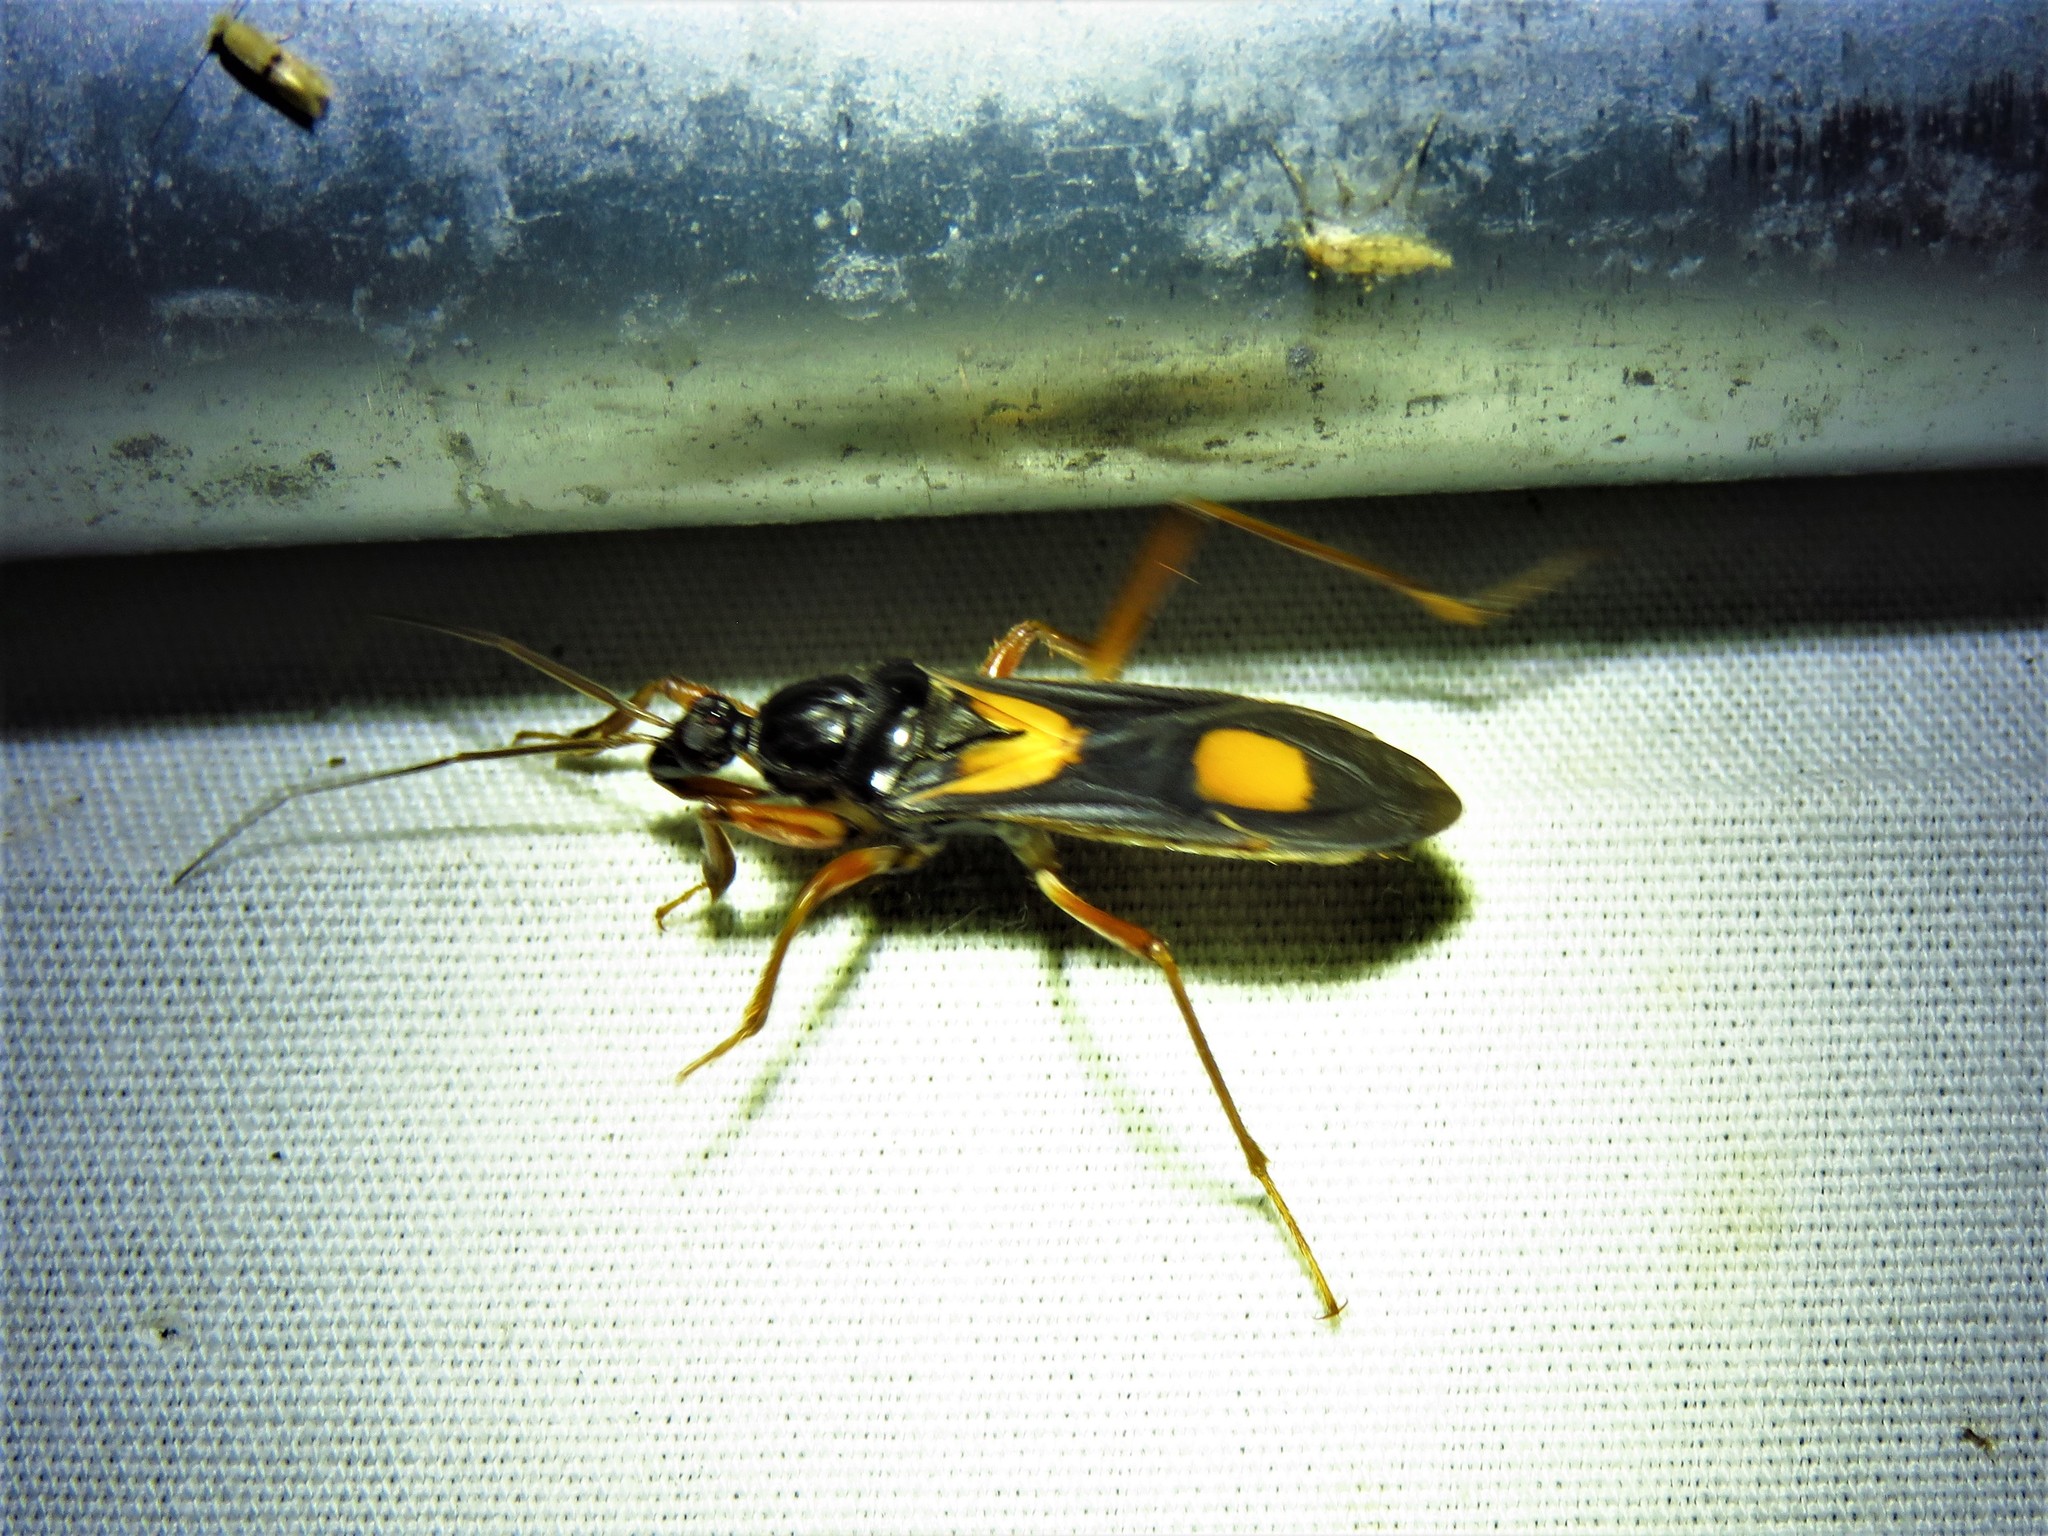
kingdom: Animalia
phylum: Arthropoda
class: Insecta
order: Hemiptera
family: Reduviidae
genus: Rasahus
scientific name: Rasahus hamatus
